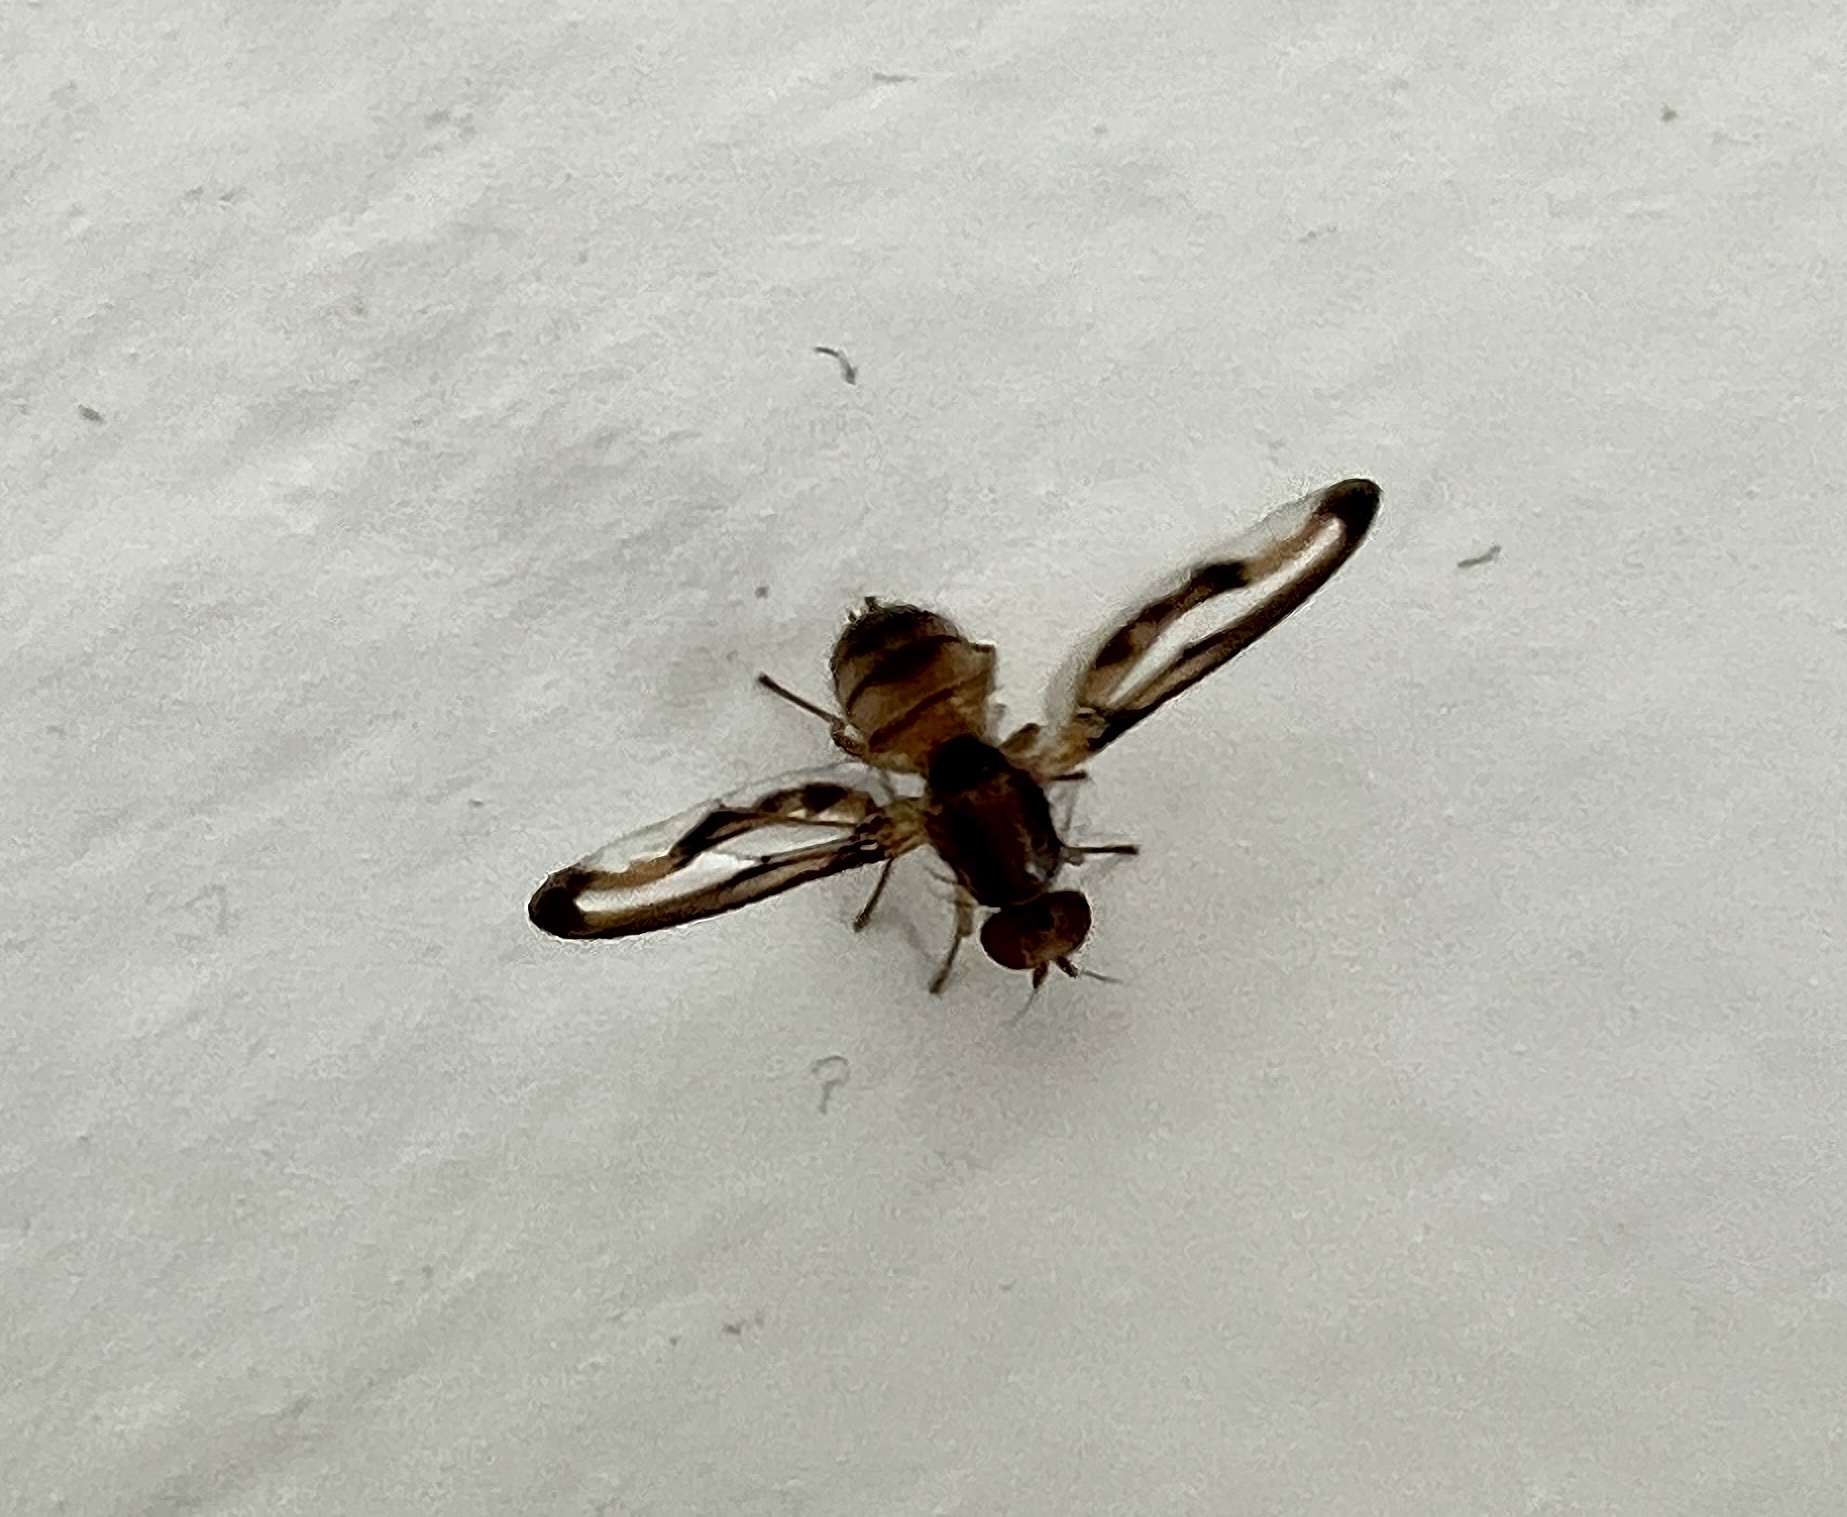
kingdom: Animalia
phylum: Arthropoda
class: Insecta
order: Diptera
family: Pallopteridae
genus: Toxonevra
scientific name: Toxonevra muliebris
